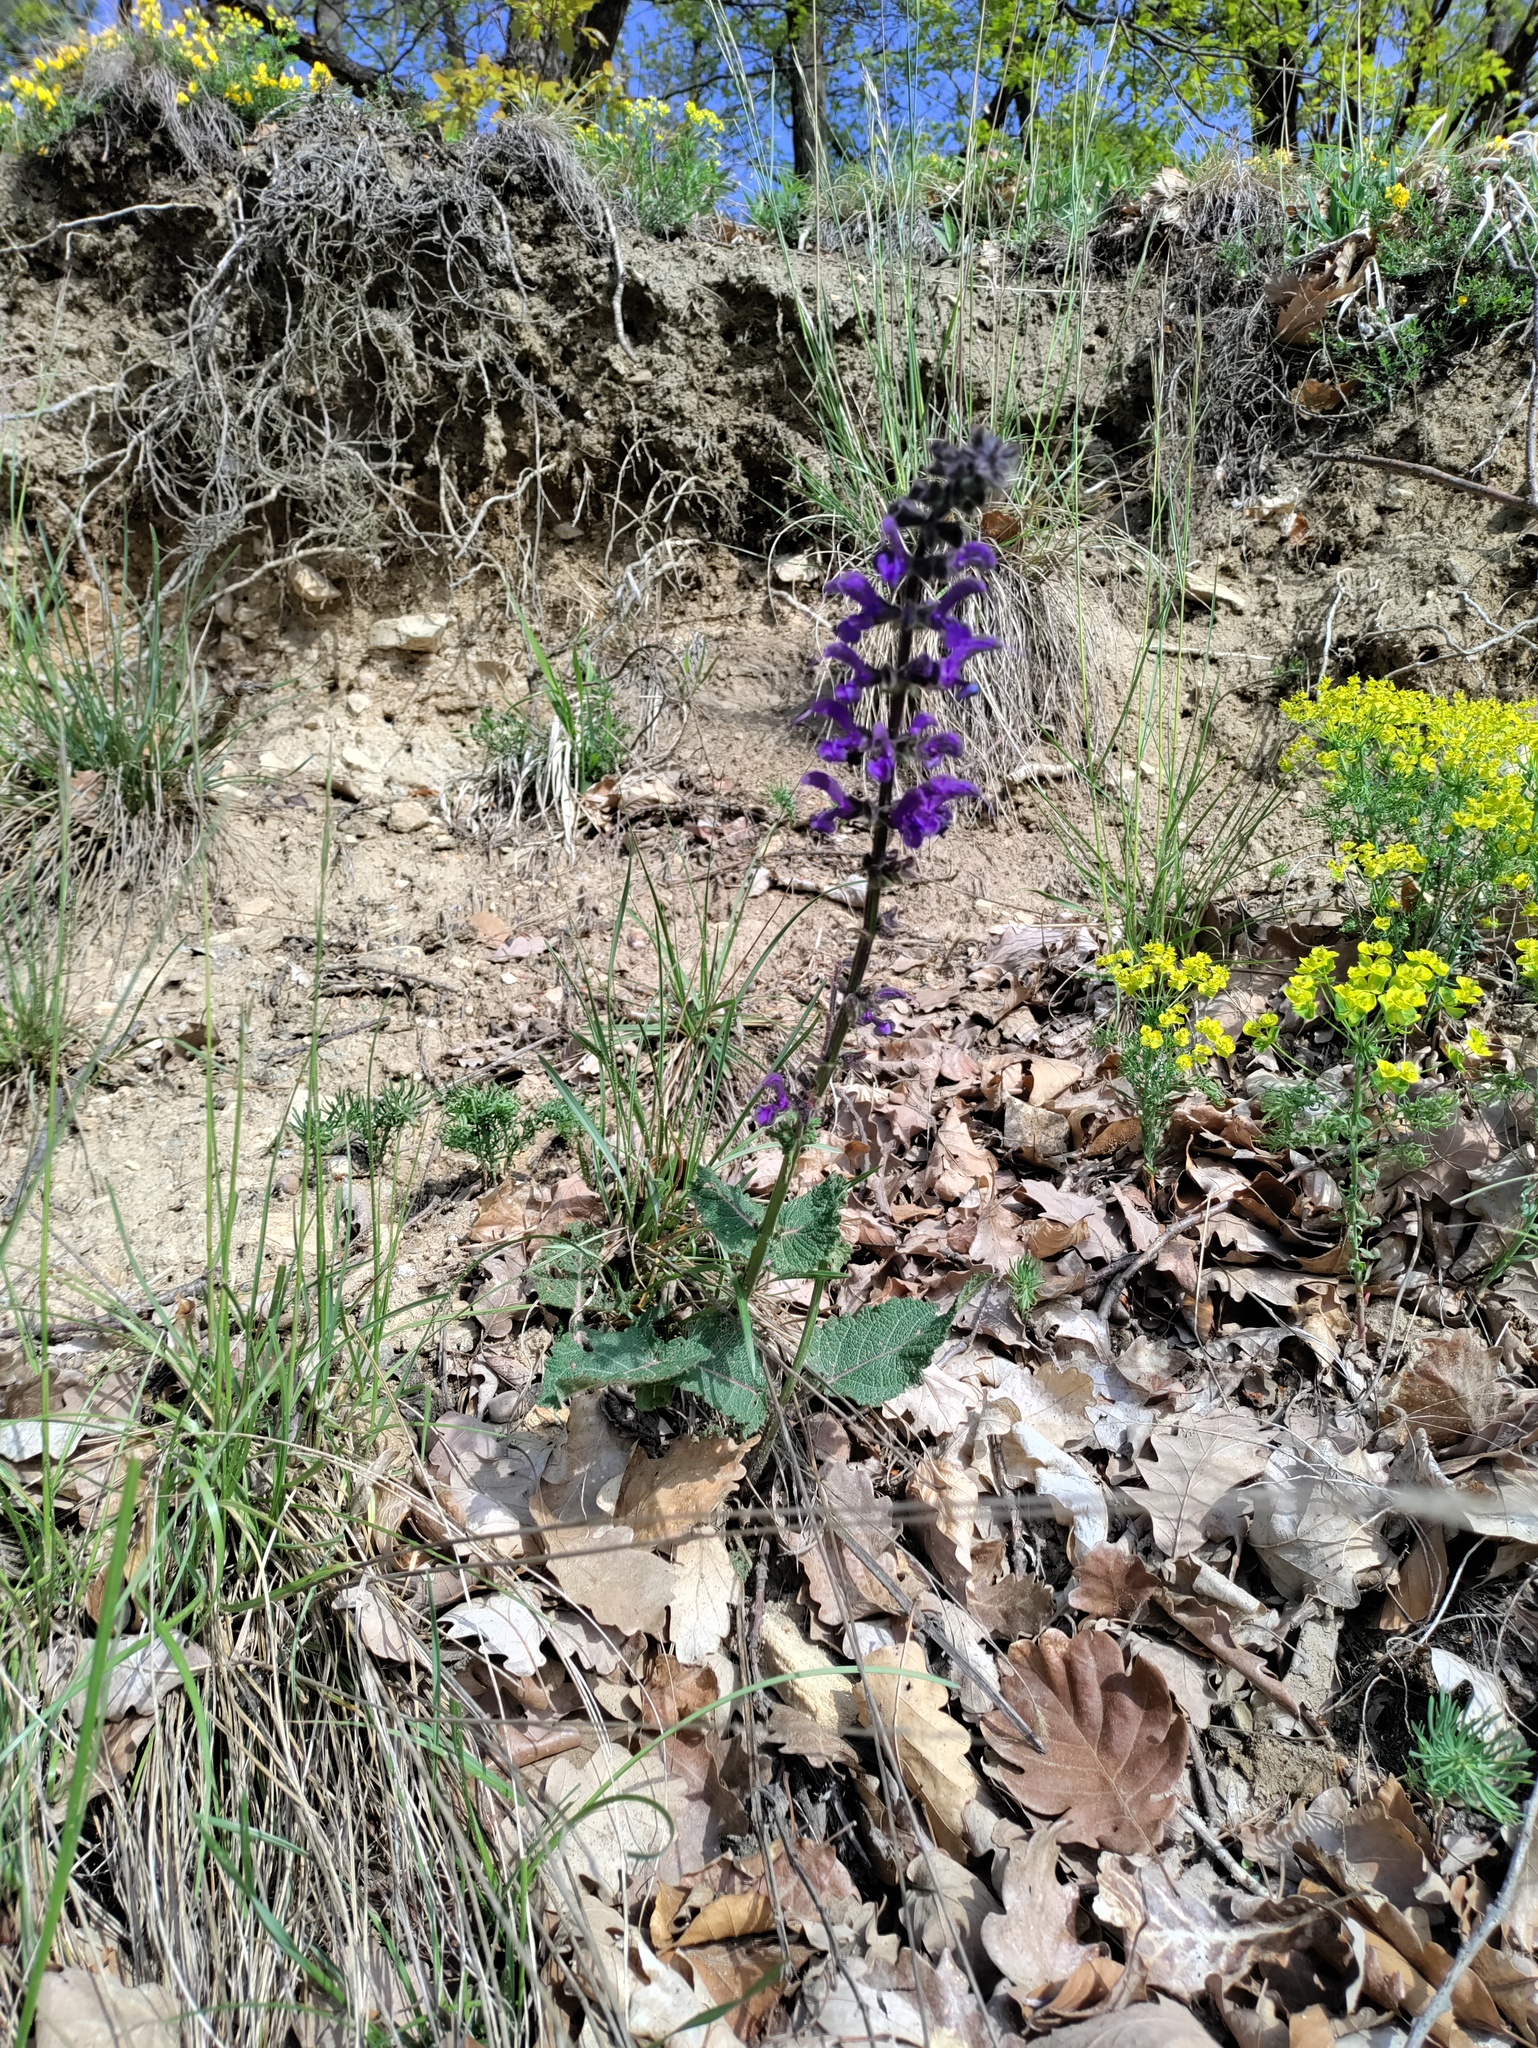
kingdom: Plantae
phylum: Tracheophyta
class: Magnoliopsida
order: Lamiales
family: Lamiaceae
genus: Salvia
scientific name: Salvia pratensis
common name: Meadow sage
